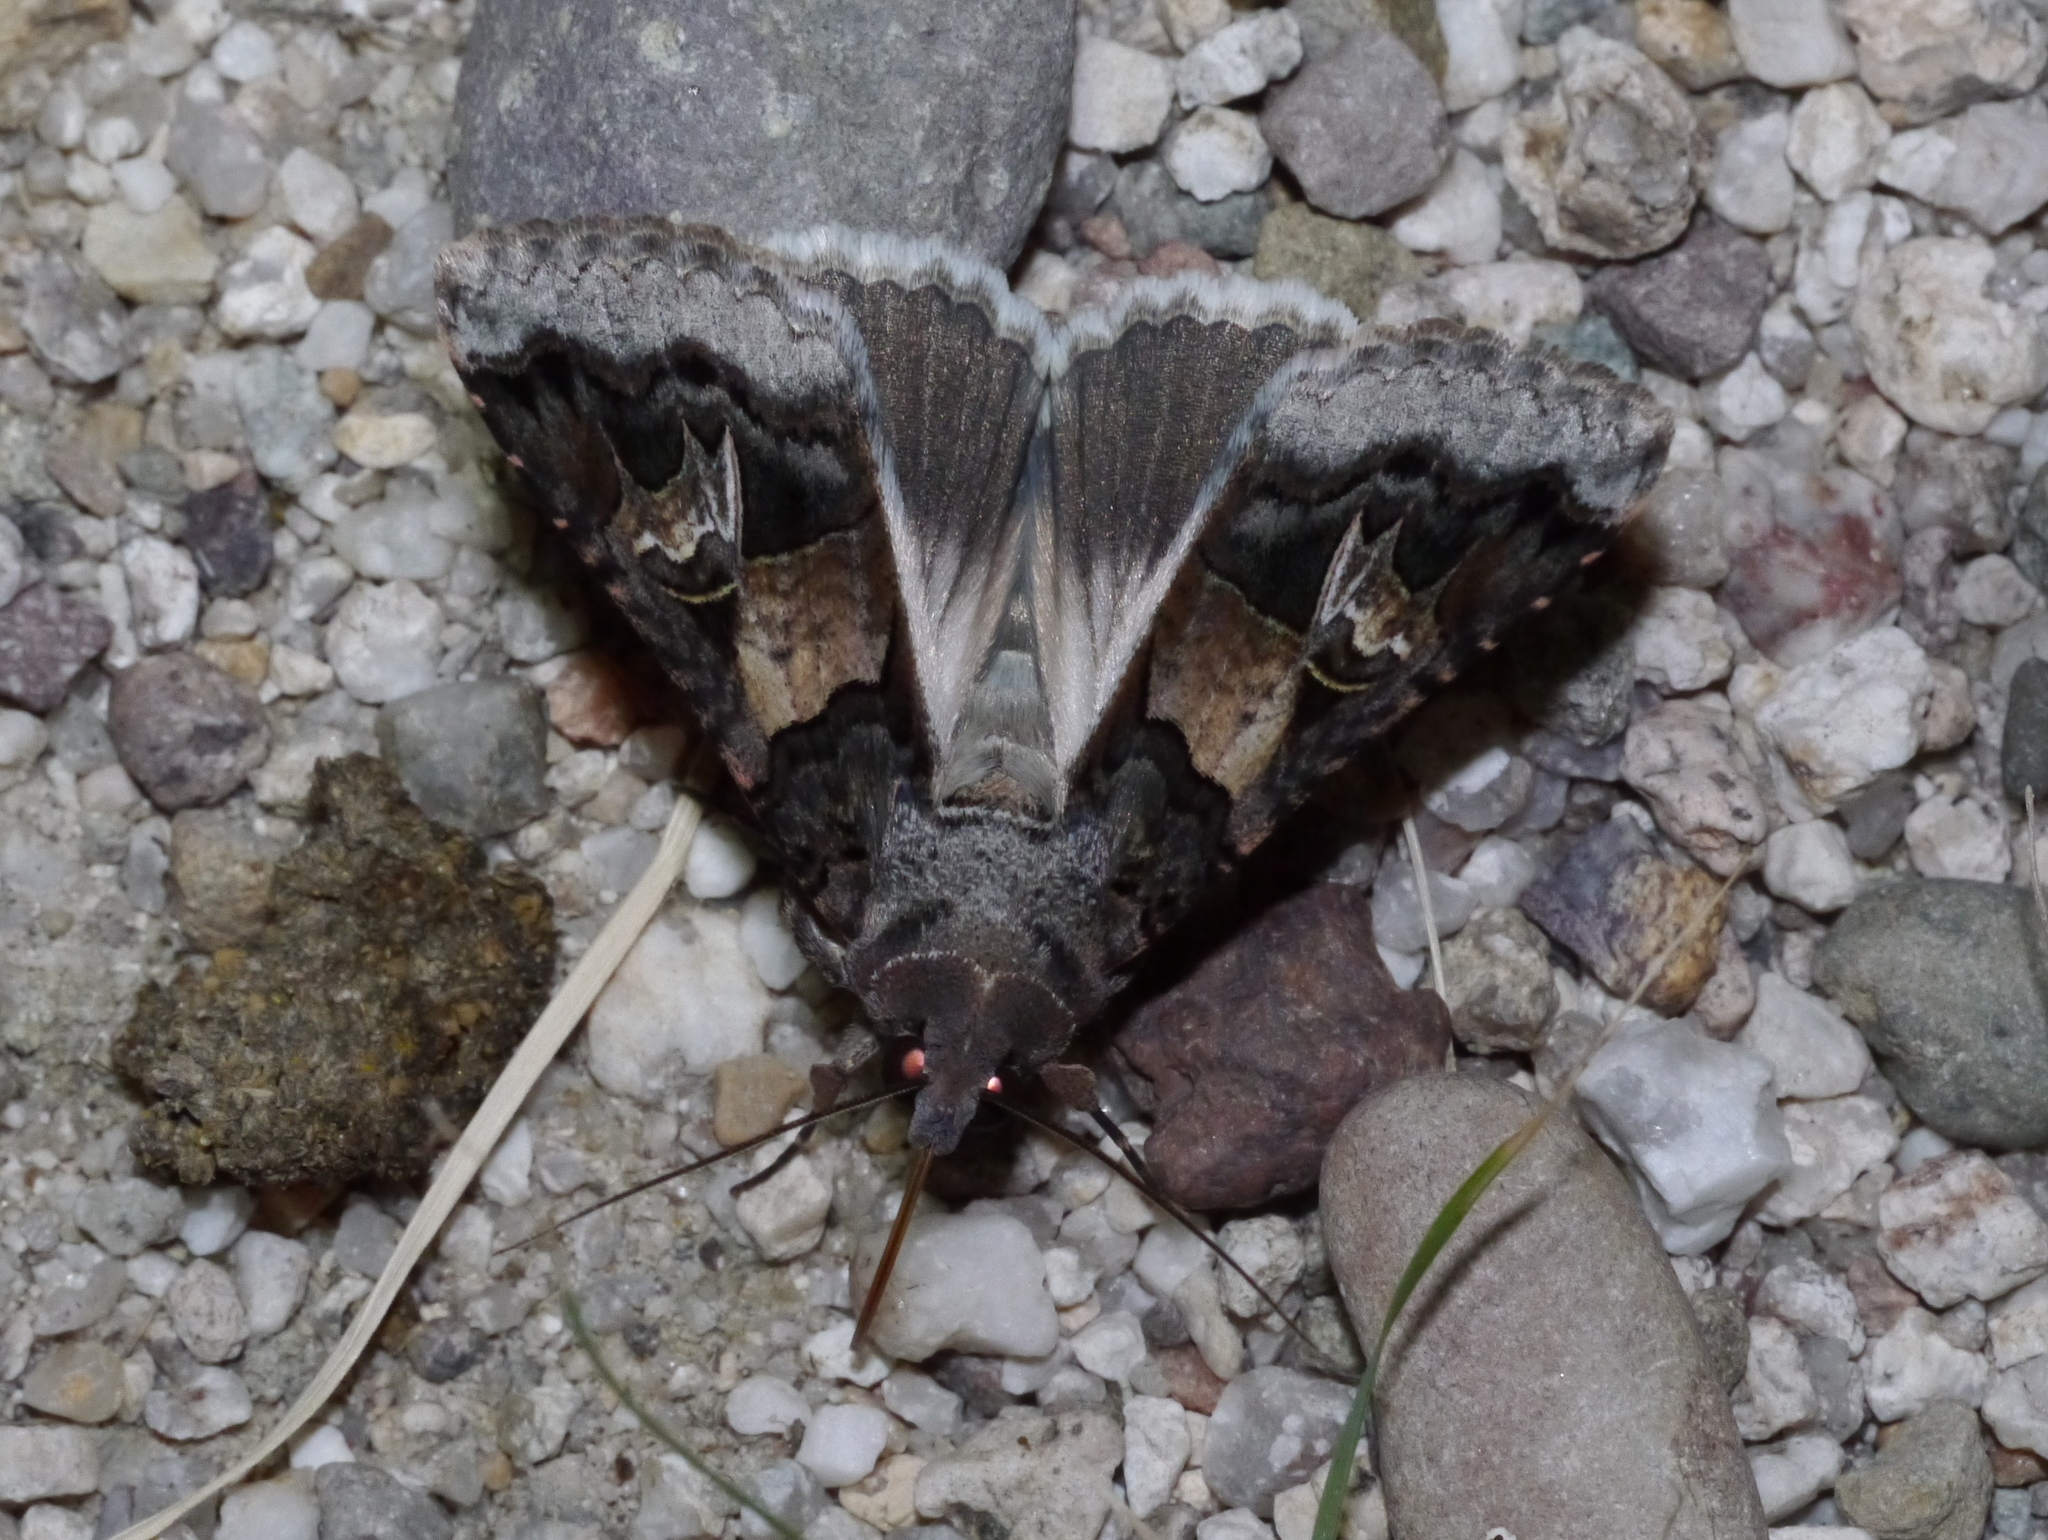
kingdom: Animalia
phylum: Arthropoda
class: Insecta
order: Lepidoptera
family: Erebidae
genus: Melipotis
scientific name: Melipotis novanda
